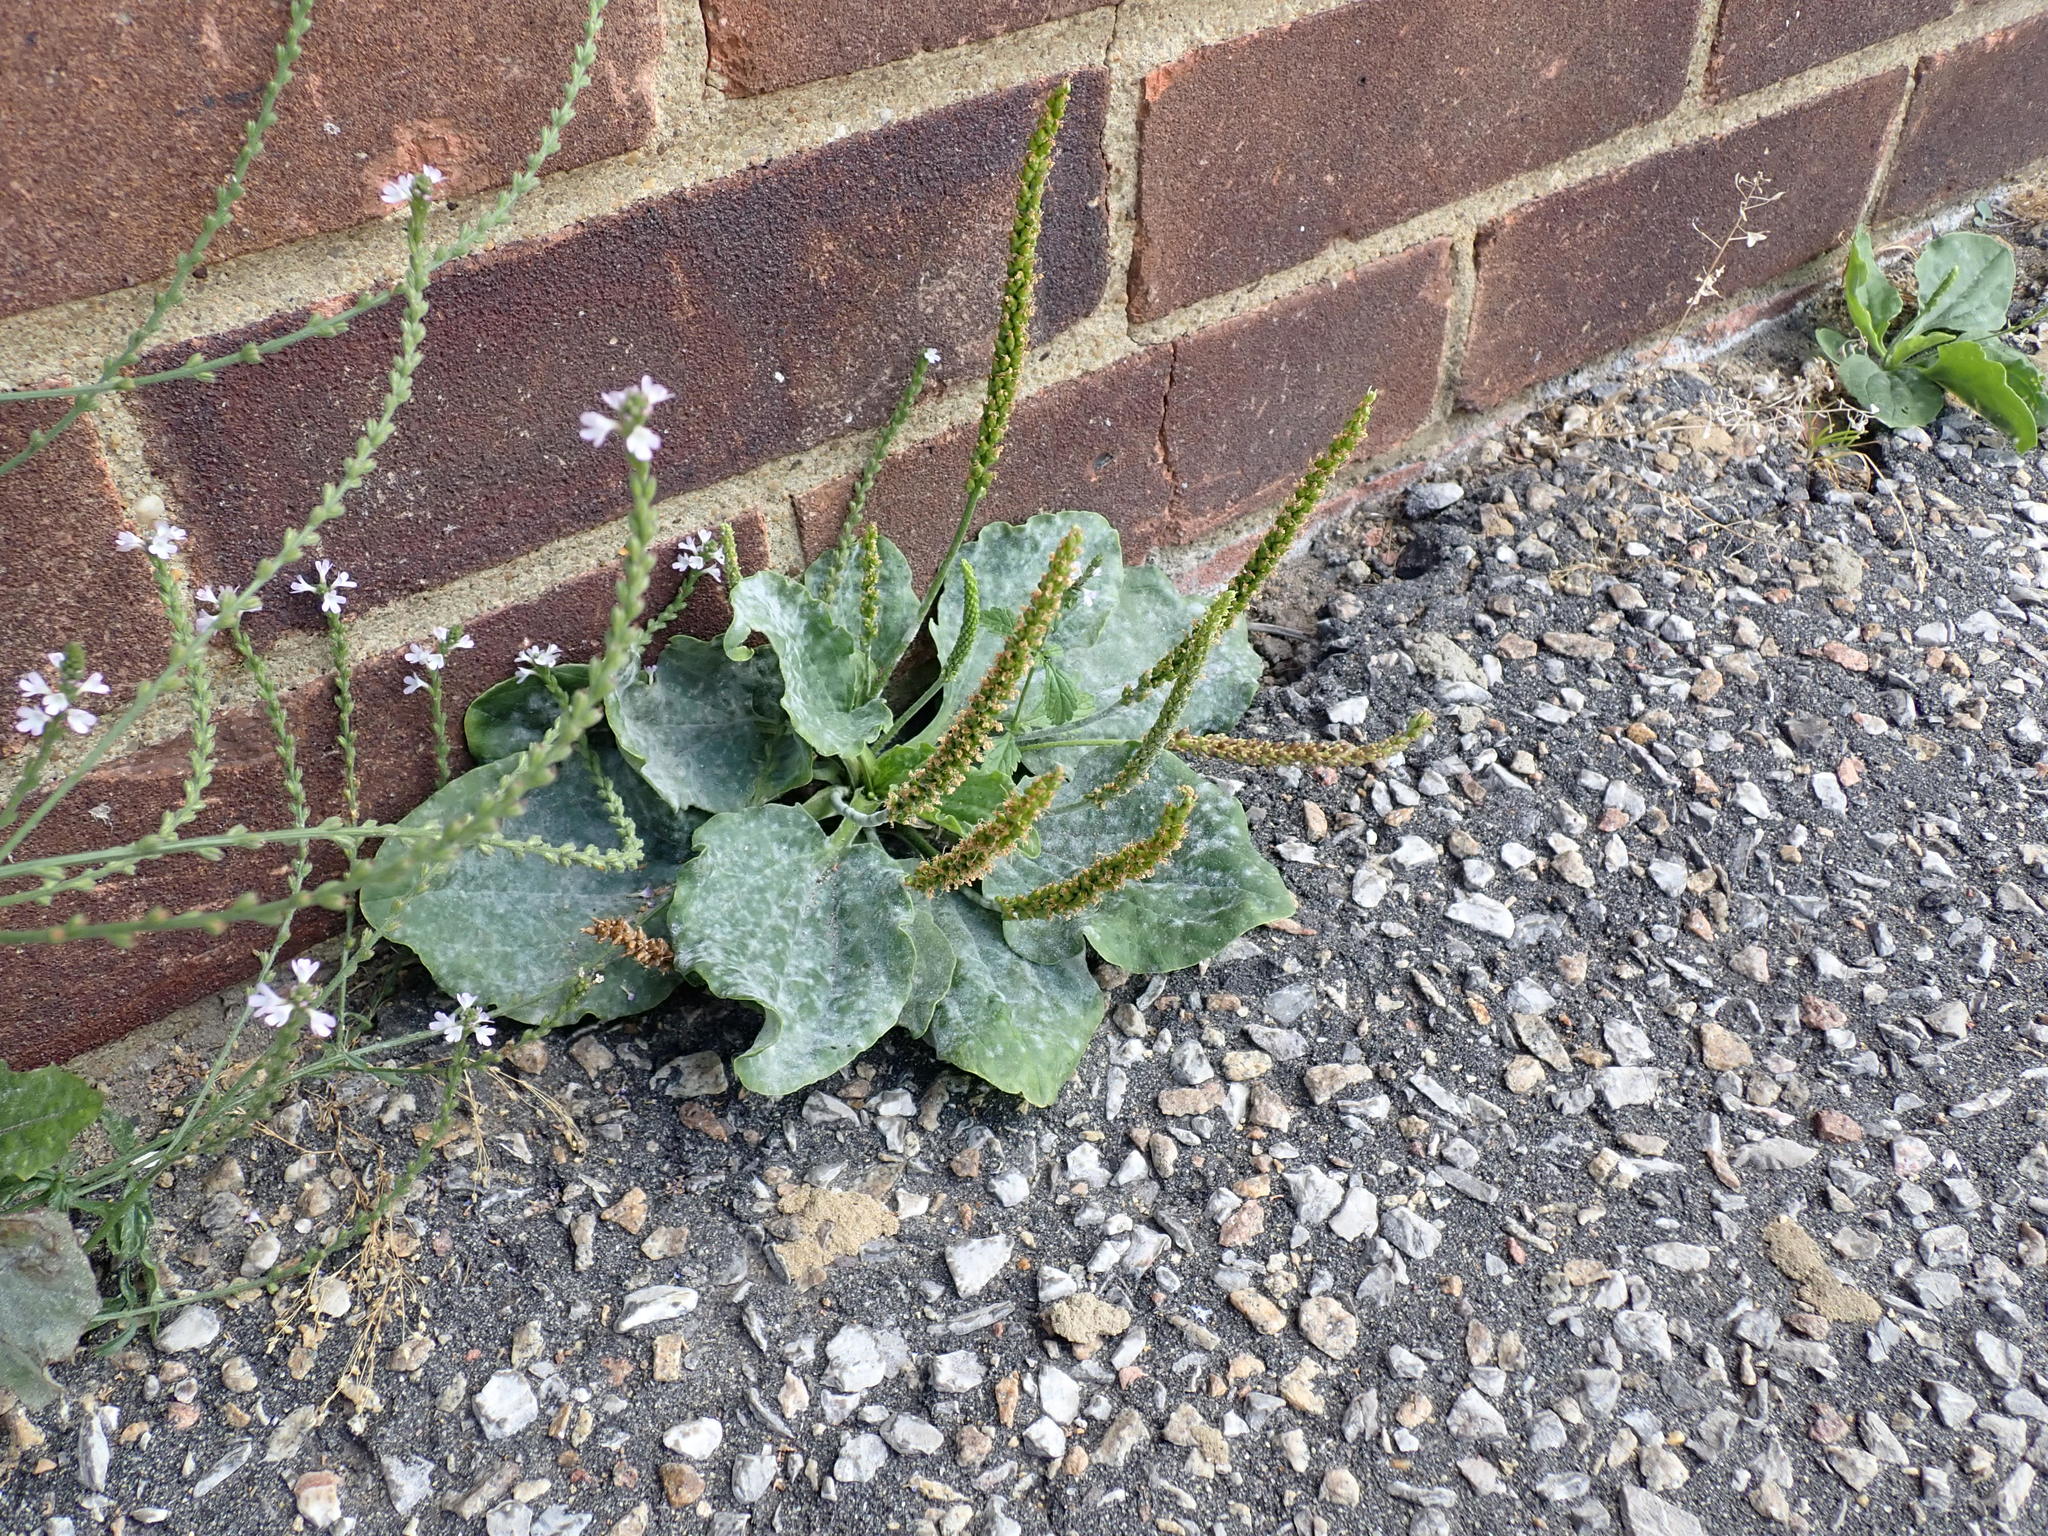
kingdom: Plantae
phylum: Tracheophyta
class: Magnoliopsida
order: Lamiales
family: Plantaginaceae
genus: Plantago
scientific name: Plantago major
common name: Common plantain
